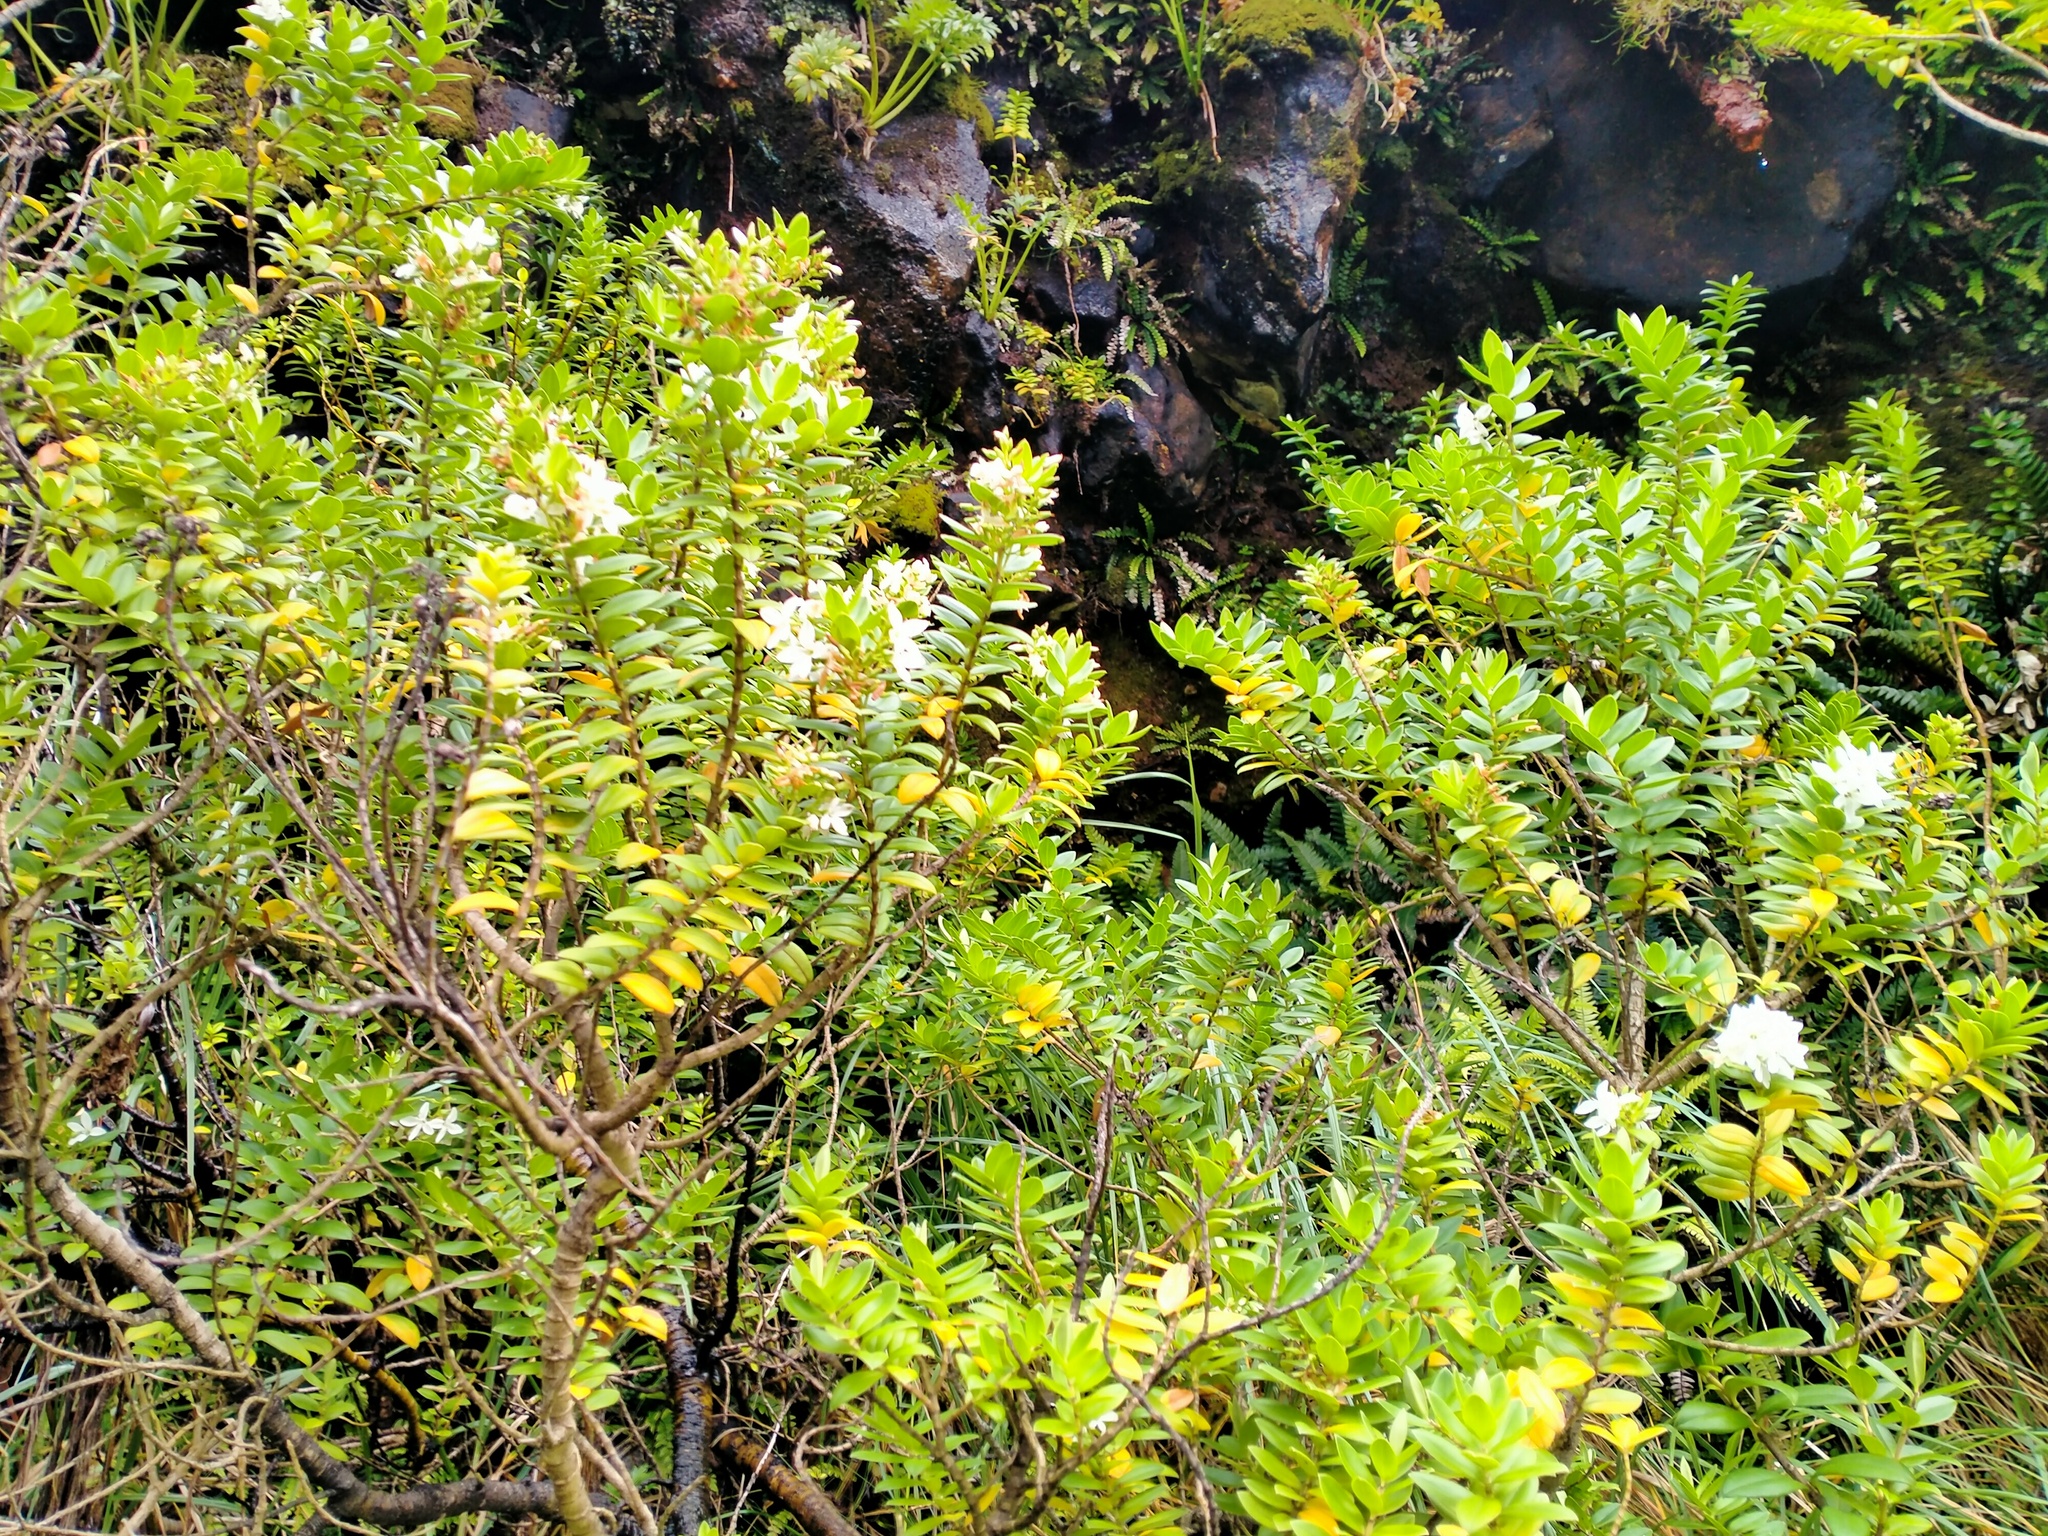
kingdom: Plantae
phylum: Tracheophyta
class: Magnoliopsida
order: Lamiales
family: Plantaginaceae
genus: Veronica
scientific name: Veronica elliptica
